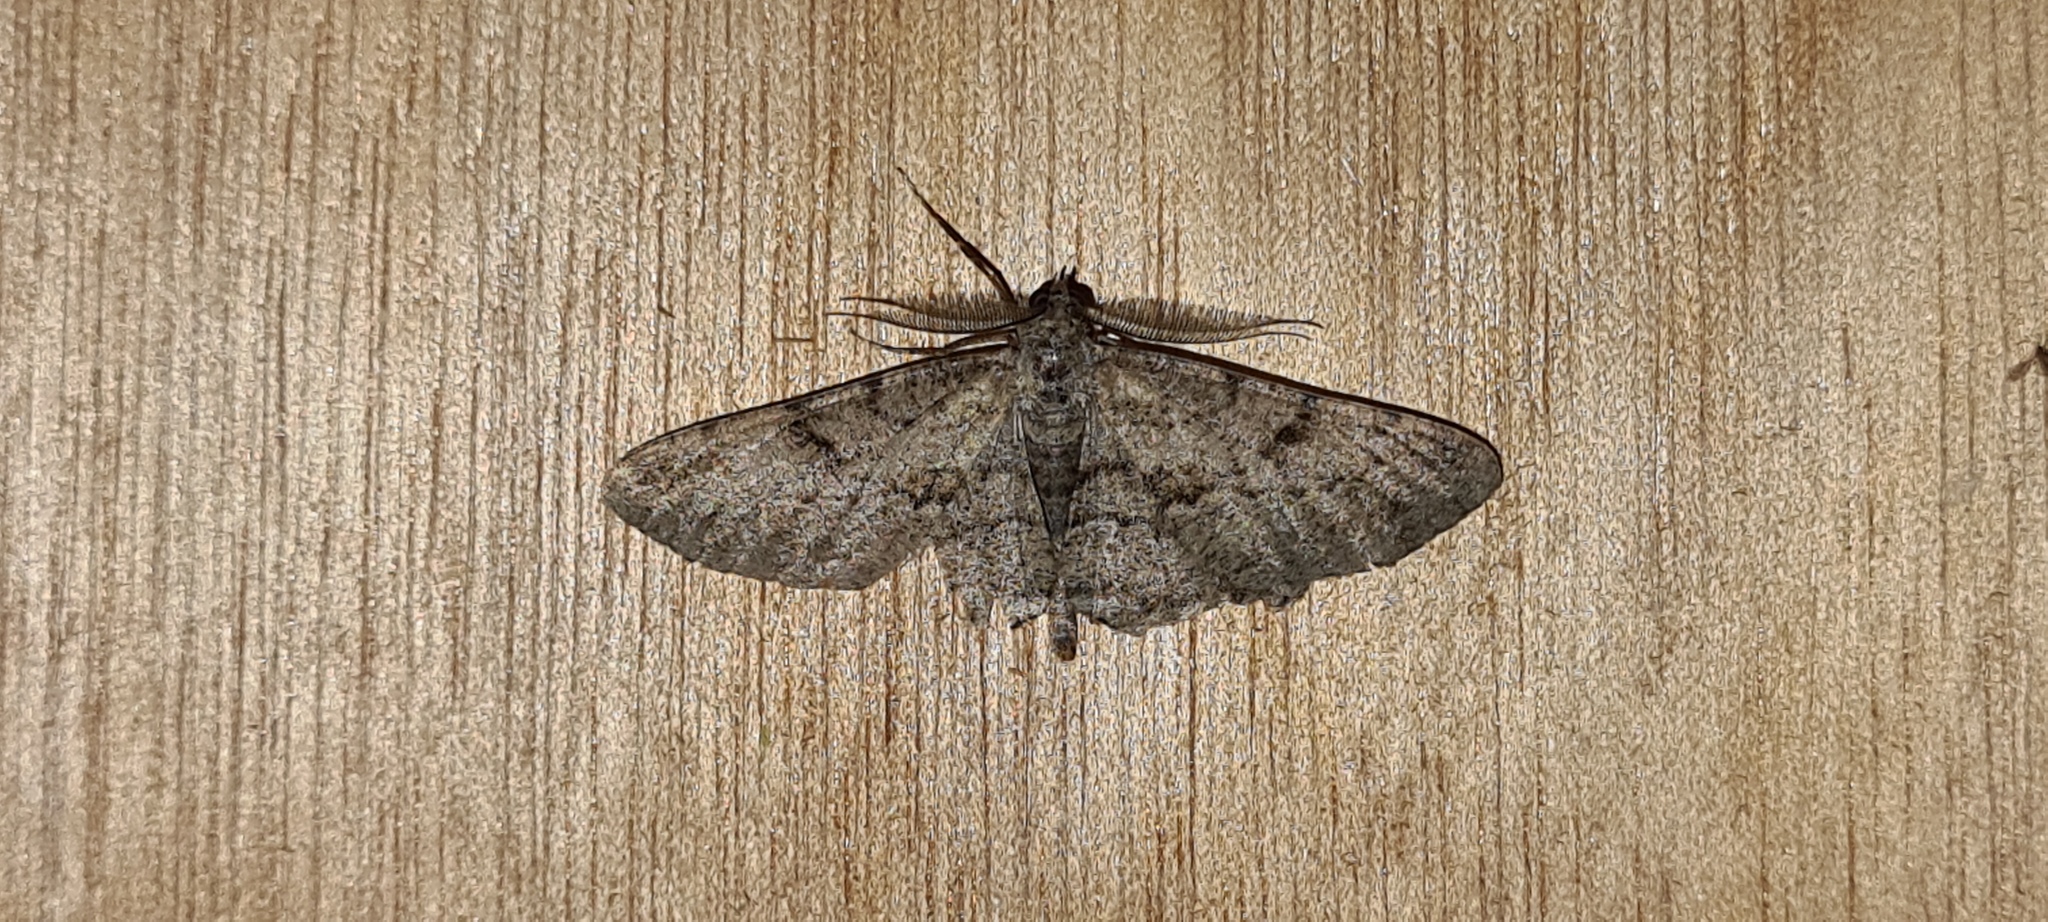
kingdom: Animalia
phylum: Arthropoda
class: Insecta
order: Lepidoptera
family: Geometridae
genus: Peribatodes
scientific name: Peribatodes rhomboidaria
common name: Willow beauty
